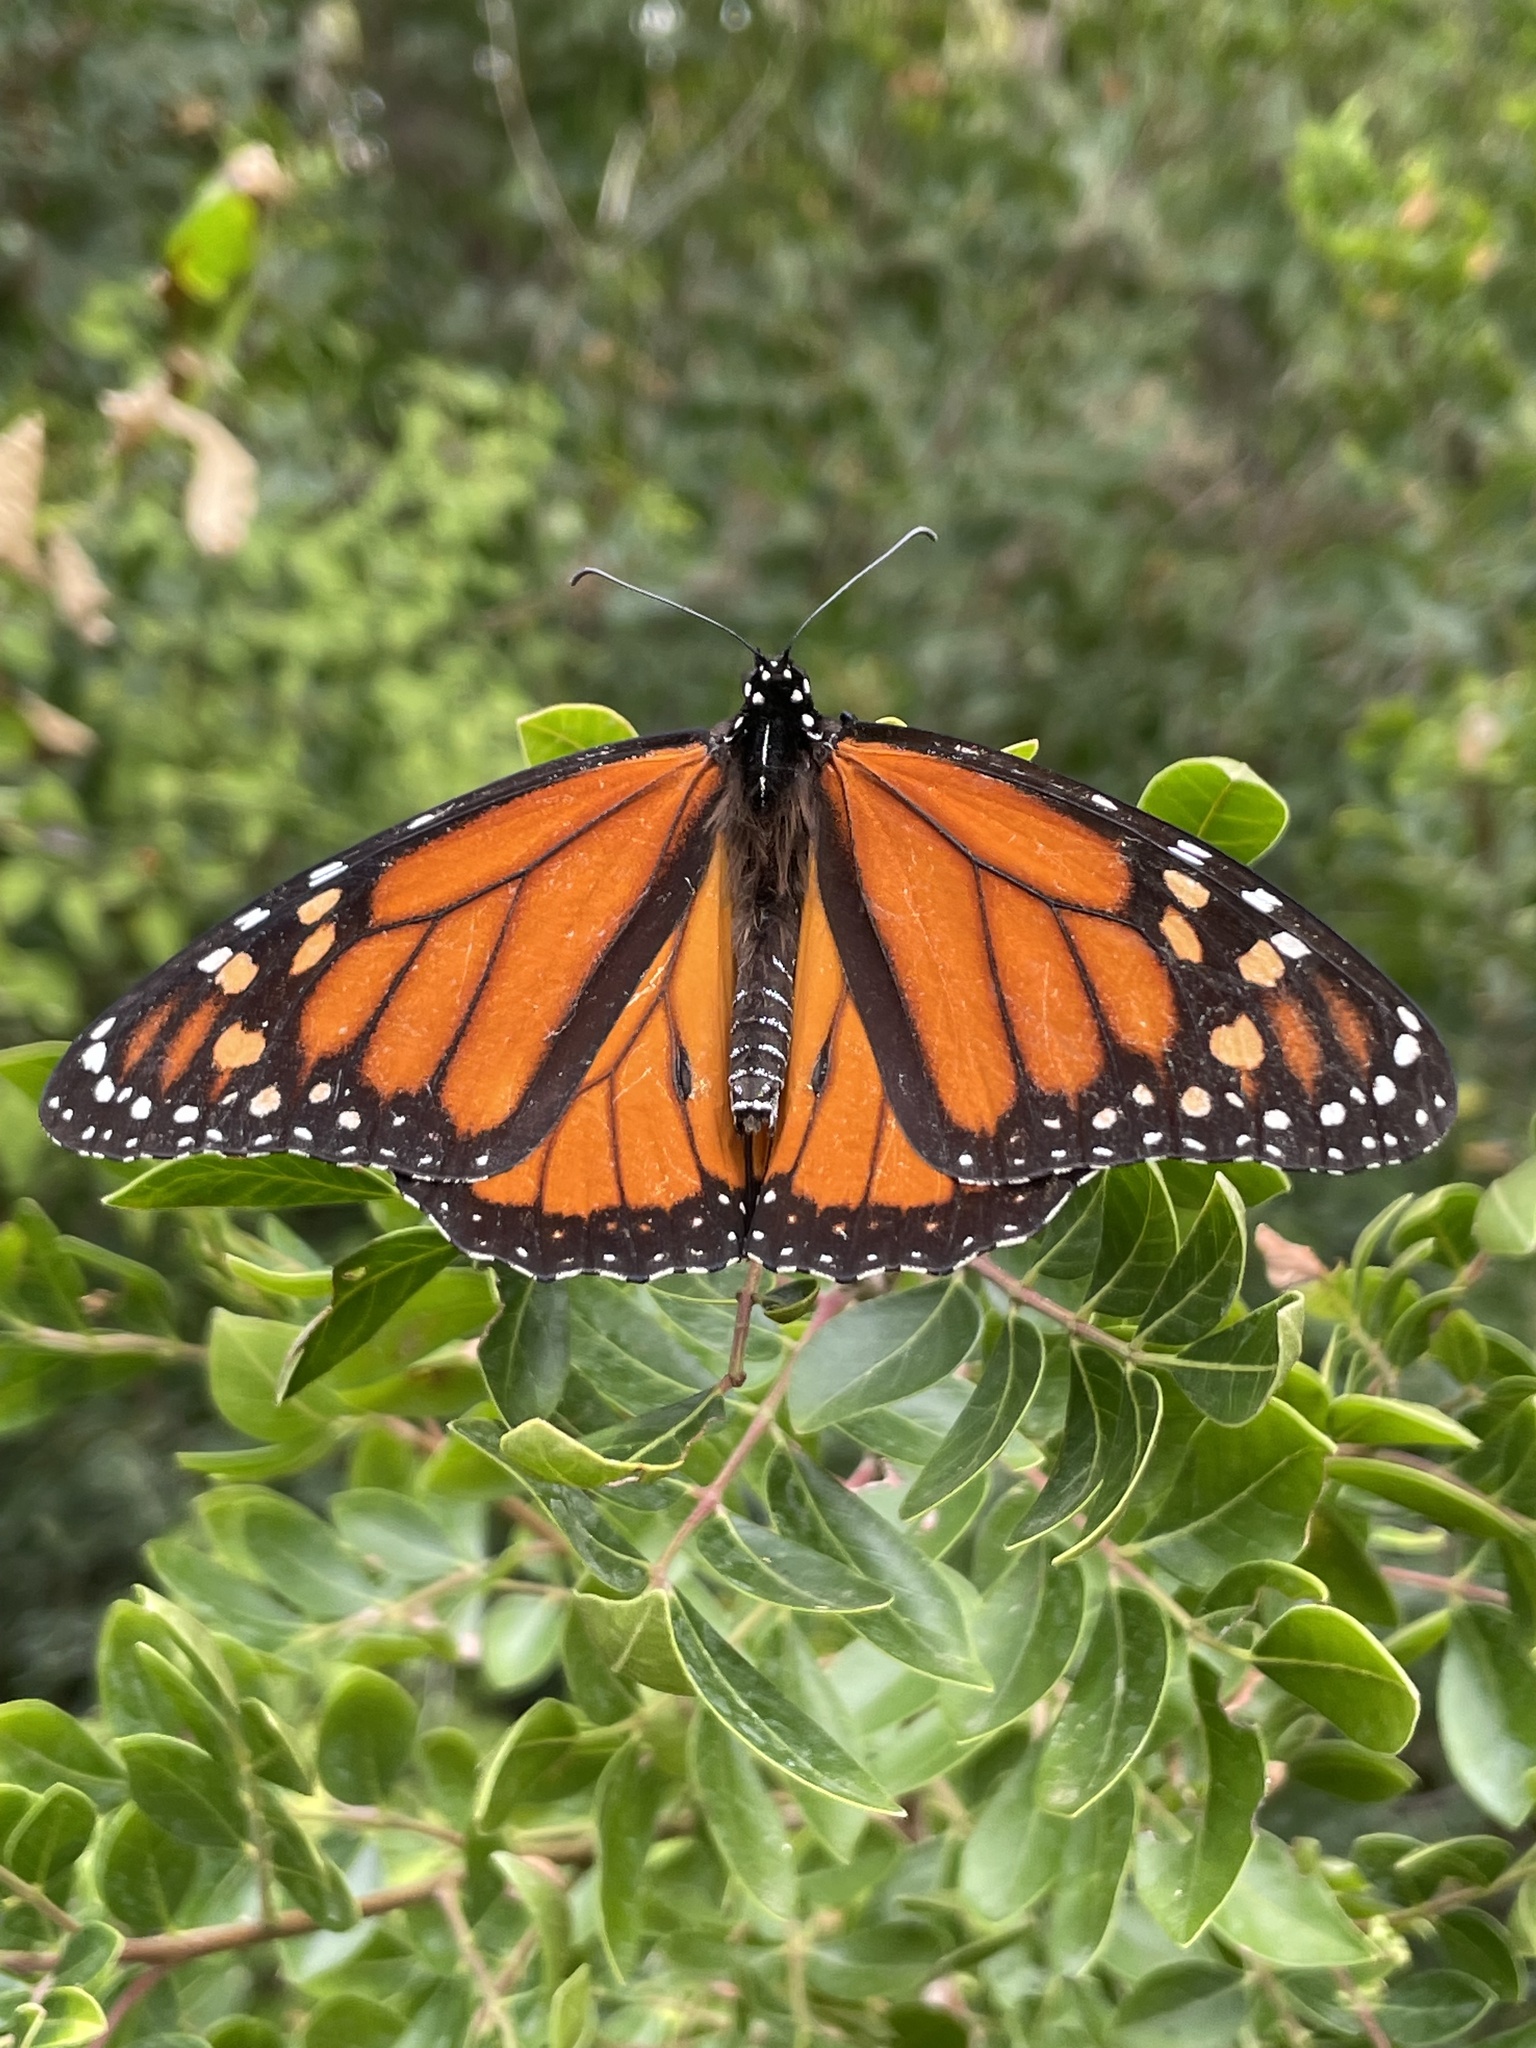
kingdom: Animalia
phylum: Arthropoda
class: Insecta
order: Lepidoptera
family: Nymphalidae
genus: Danaus
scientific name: Danaus plexippus
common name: Monarch
